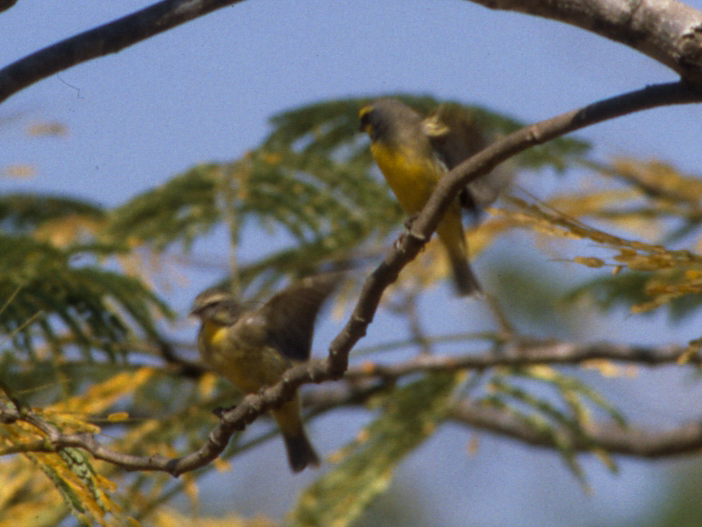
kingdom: Animalia
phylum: Chordata
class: Aves
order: Passeriformes
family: Fringillidae
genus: Crithagra
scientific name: Crithagra mozambica
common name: Yellow-fronted canary
